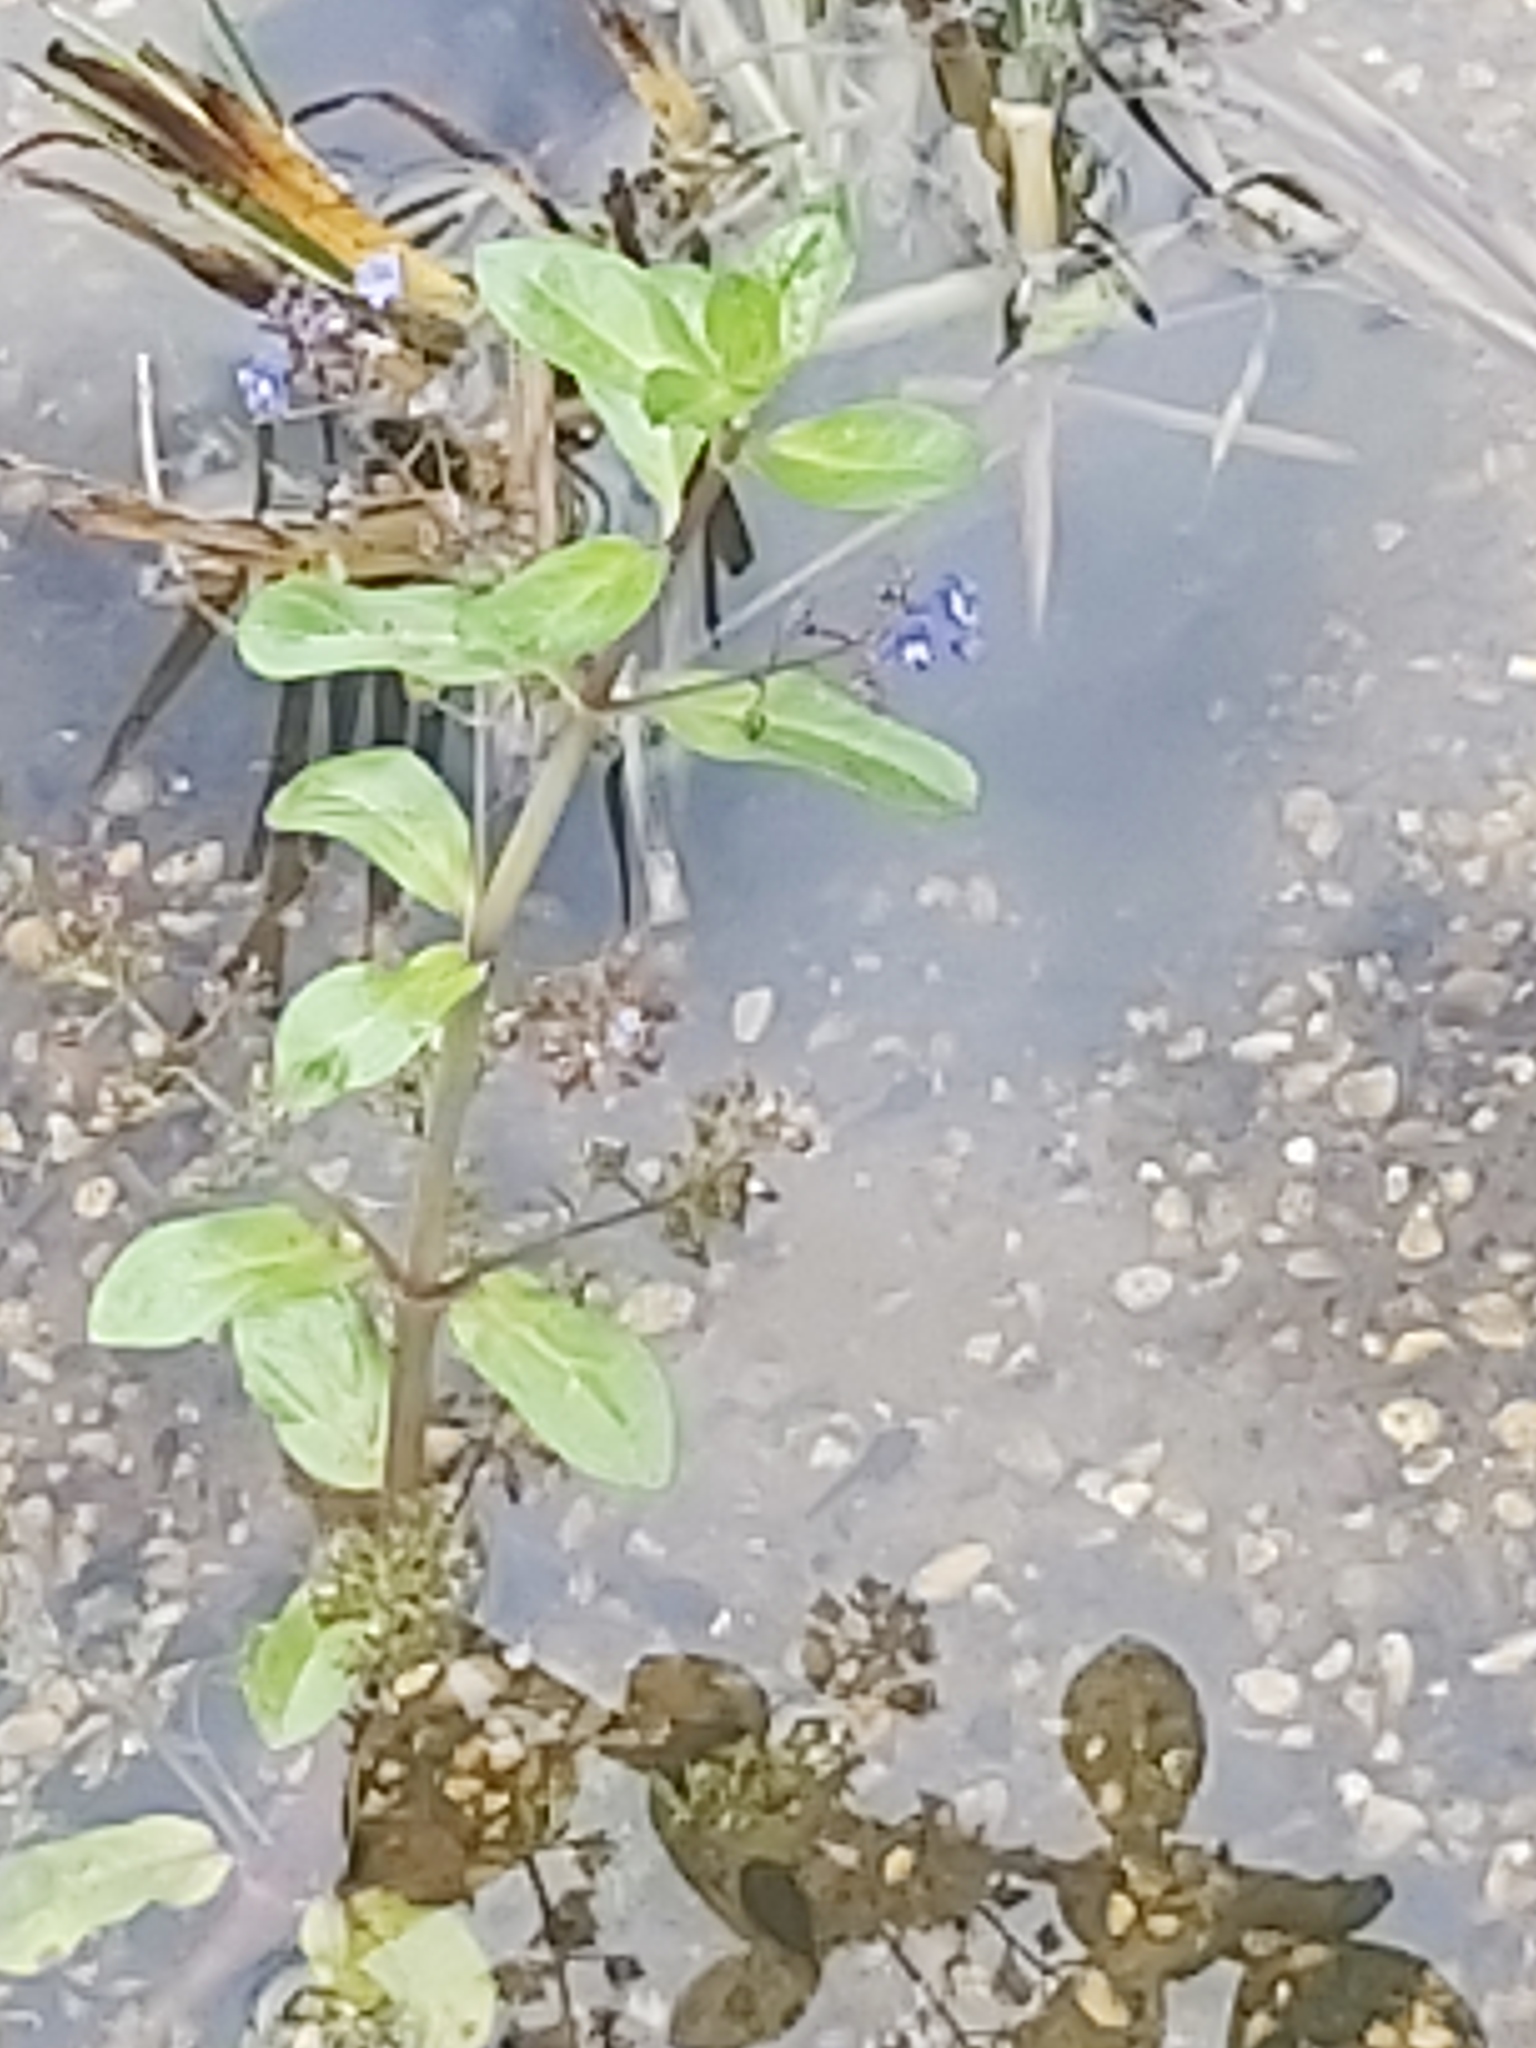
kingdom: Plantae
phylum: Tracheophyta
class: Magnoliopsida
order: Lamiales
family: Plantaginaceae
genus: Veronica
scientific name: Veronica beccabunga
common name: Brooklime
